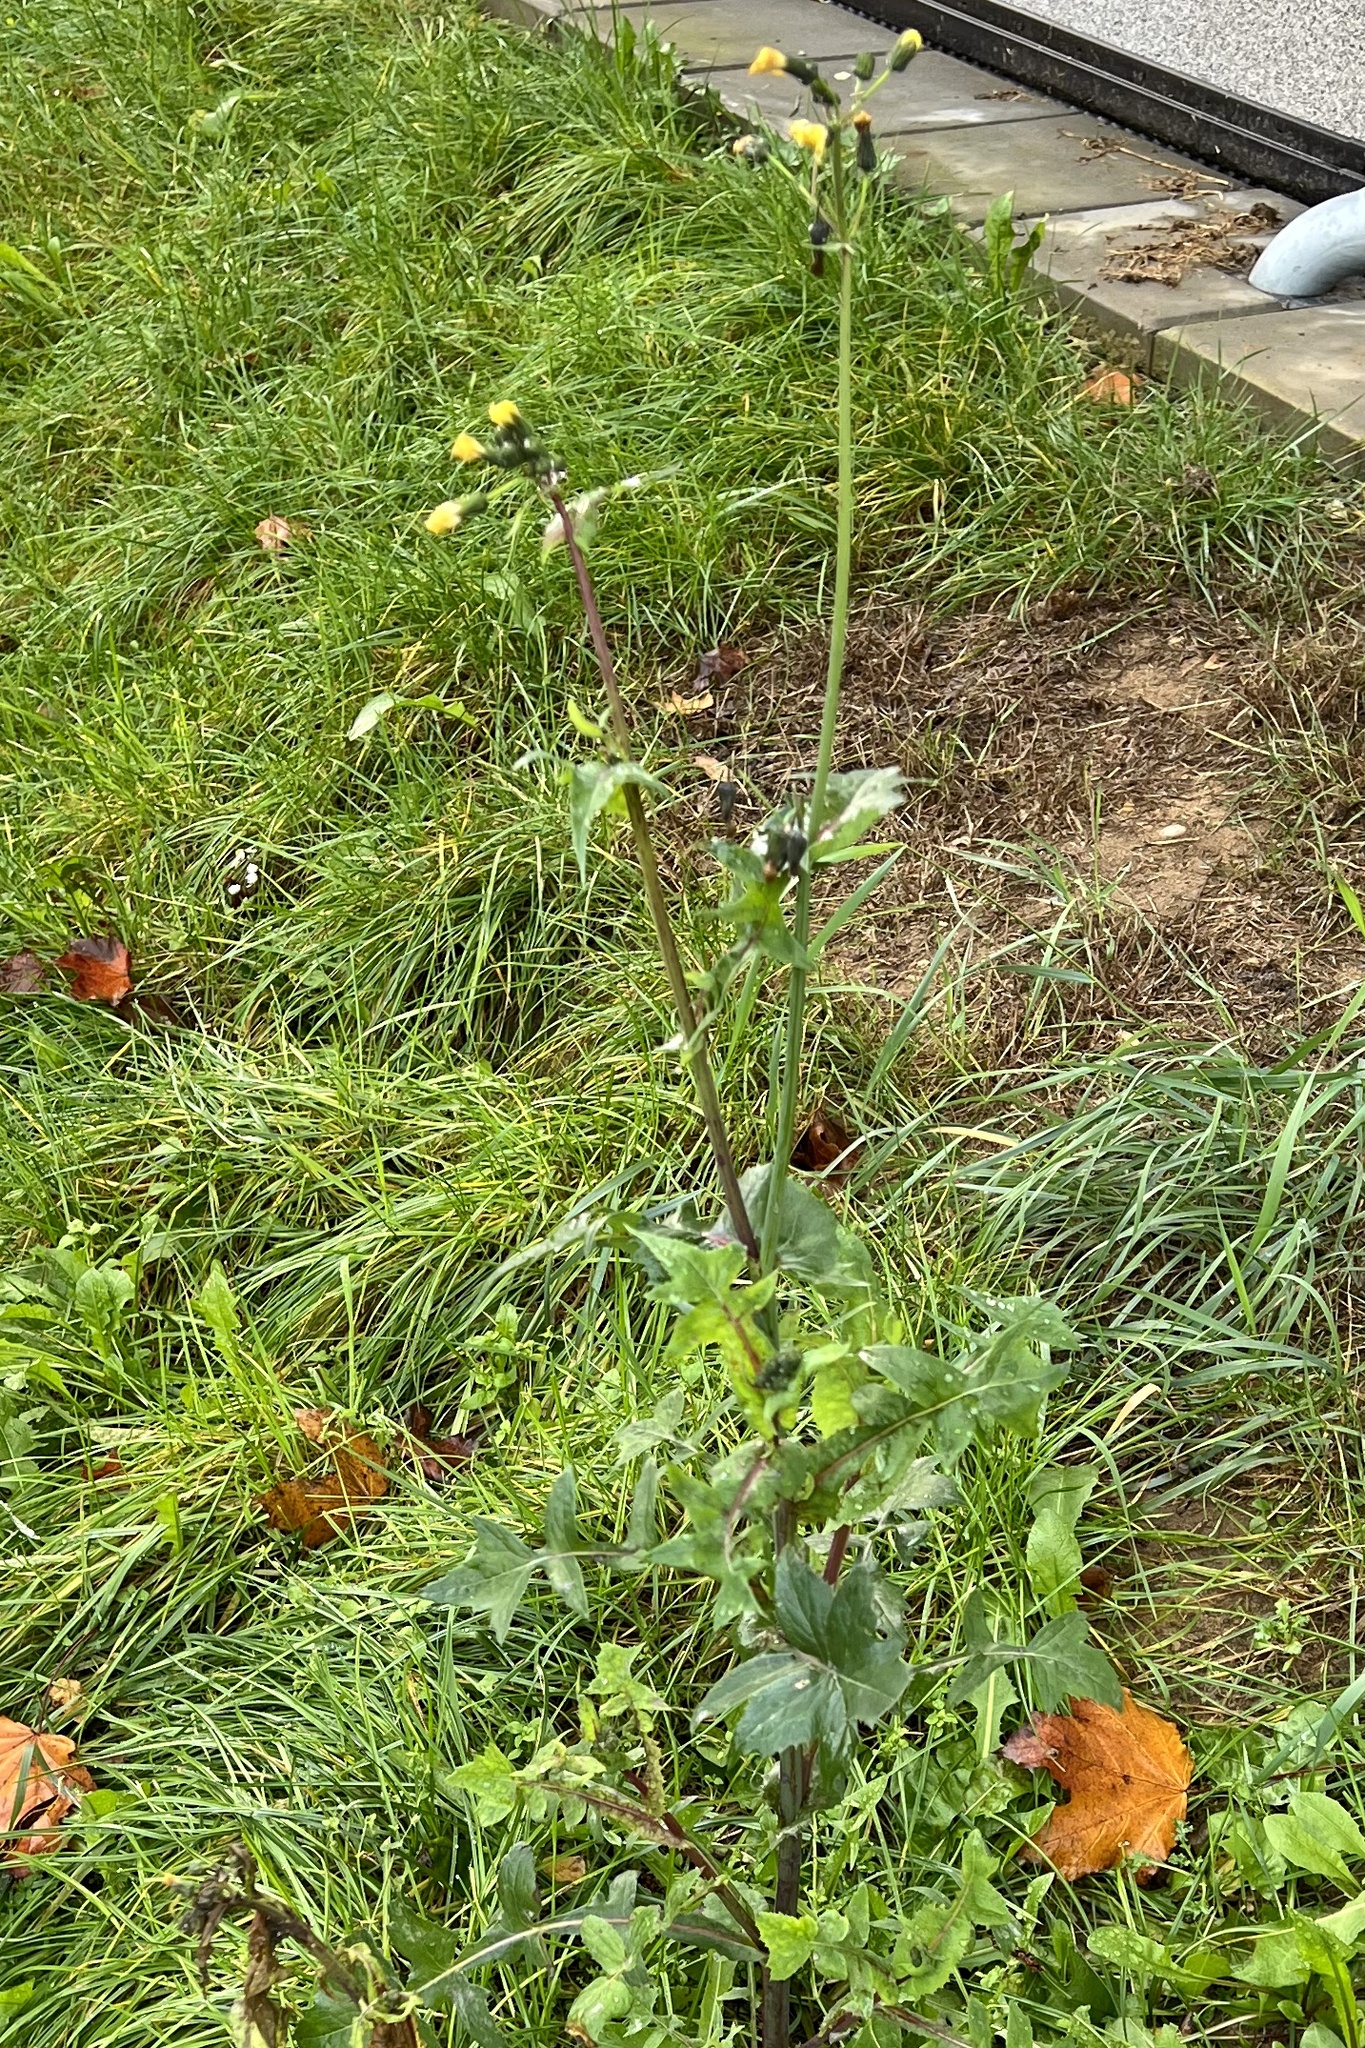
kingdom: Plantae
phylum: Tracheophyta
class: Magnoliopsida
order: Asterales
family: Asteraceae
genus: Sonchus
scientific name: Sonchus oleraceus
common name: Common sowthistle
